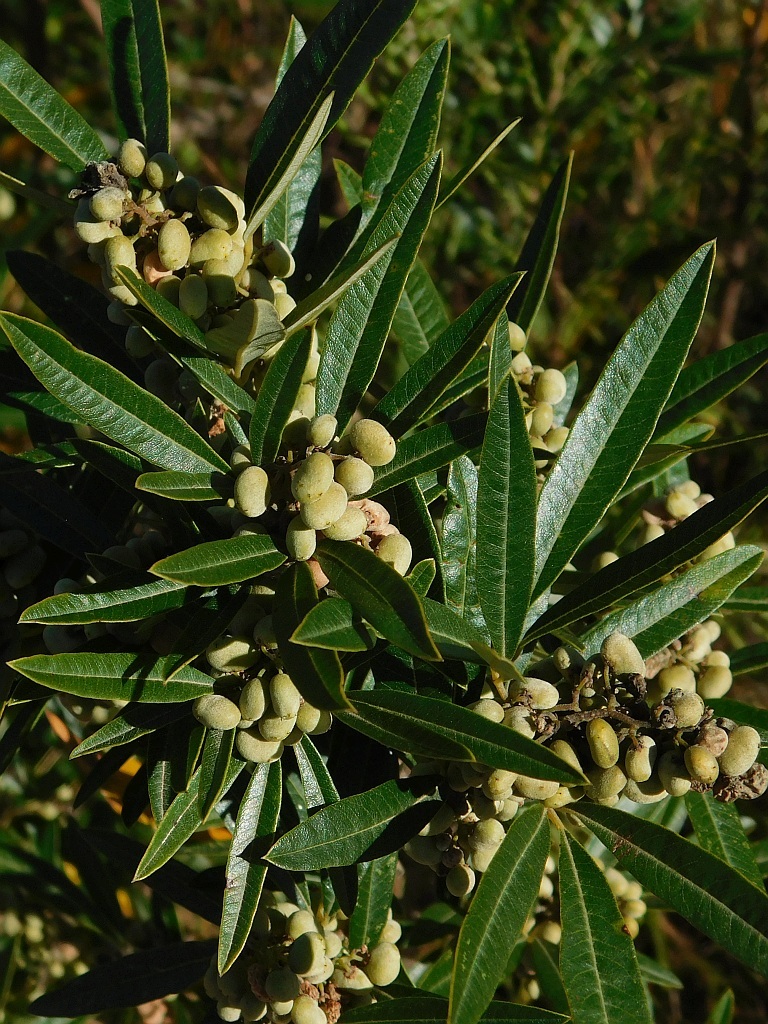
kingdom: Plantae
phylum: Tracheophyta
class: Magnoliopsida
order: Sapindales
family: Anacardiaceae
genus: Searsia
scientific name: Searsia angustifolia
